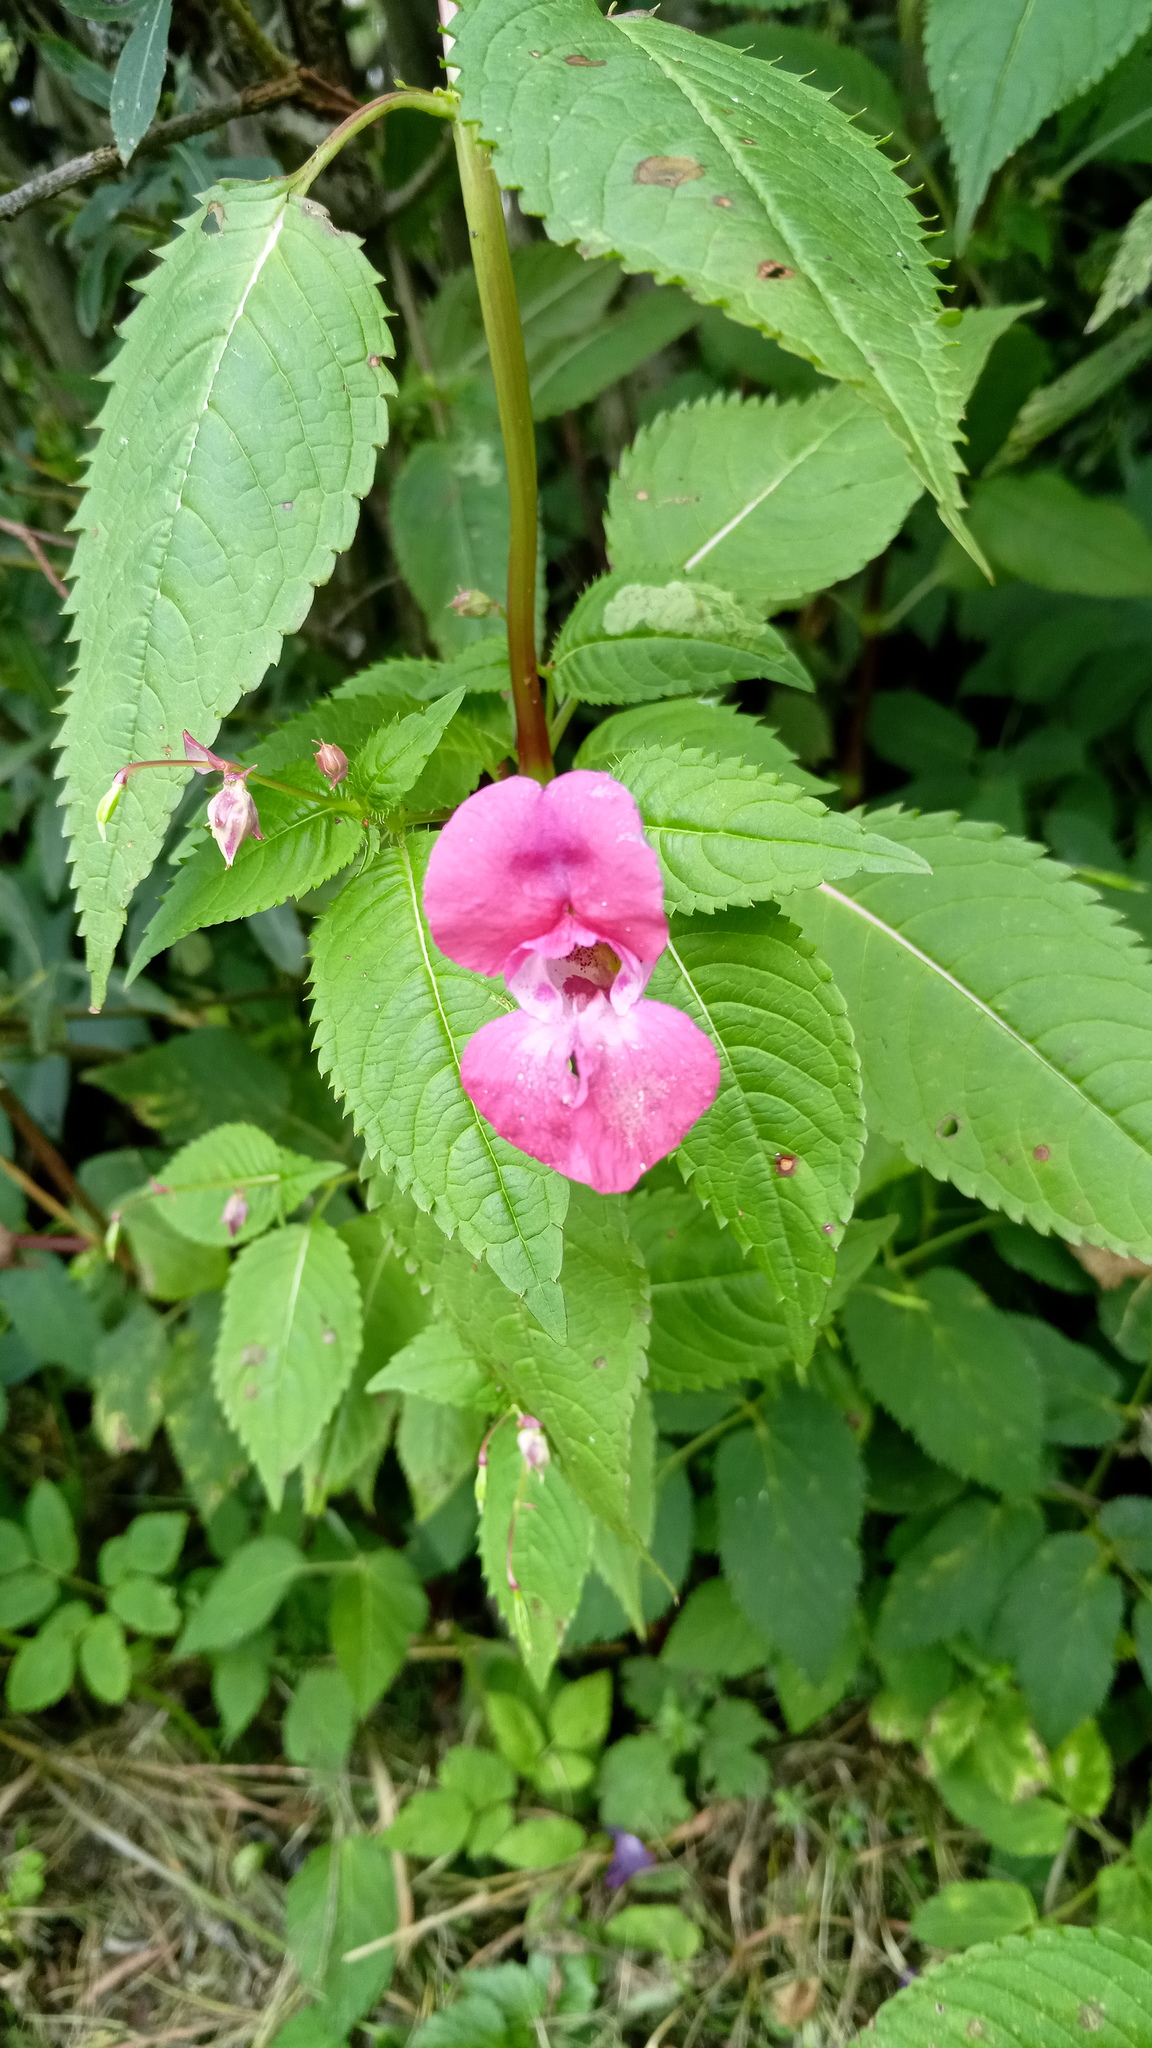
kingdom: Plantae
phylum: Tracheophyta
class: Magnoliopsida
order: Ericales
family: Balsaminaceae
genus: Impatiens
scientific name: Impatiens glandulifera
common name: Himalayan balsam
